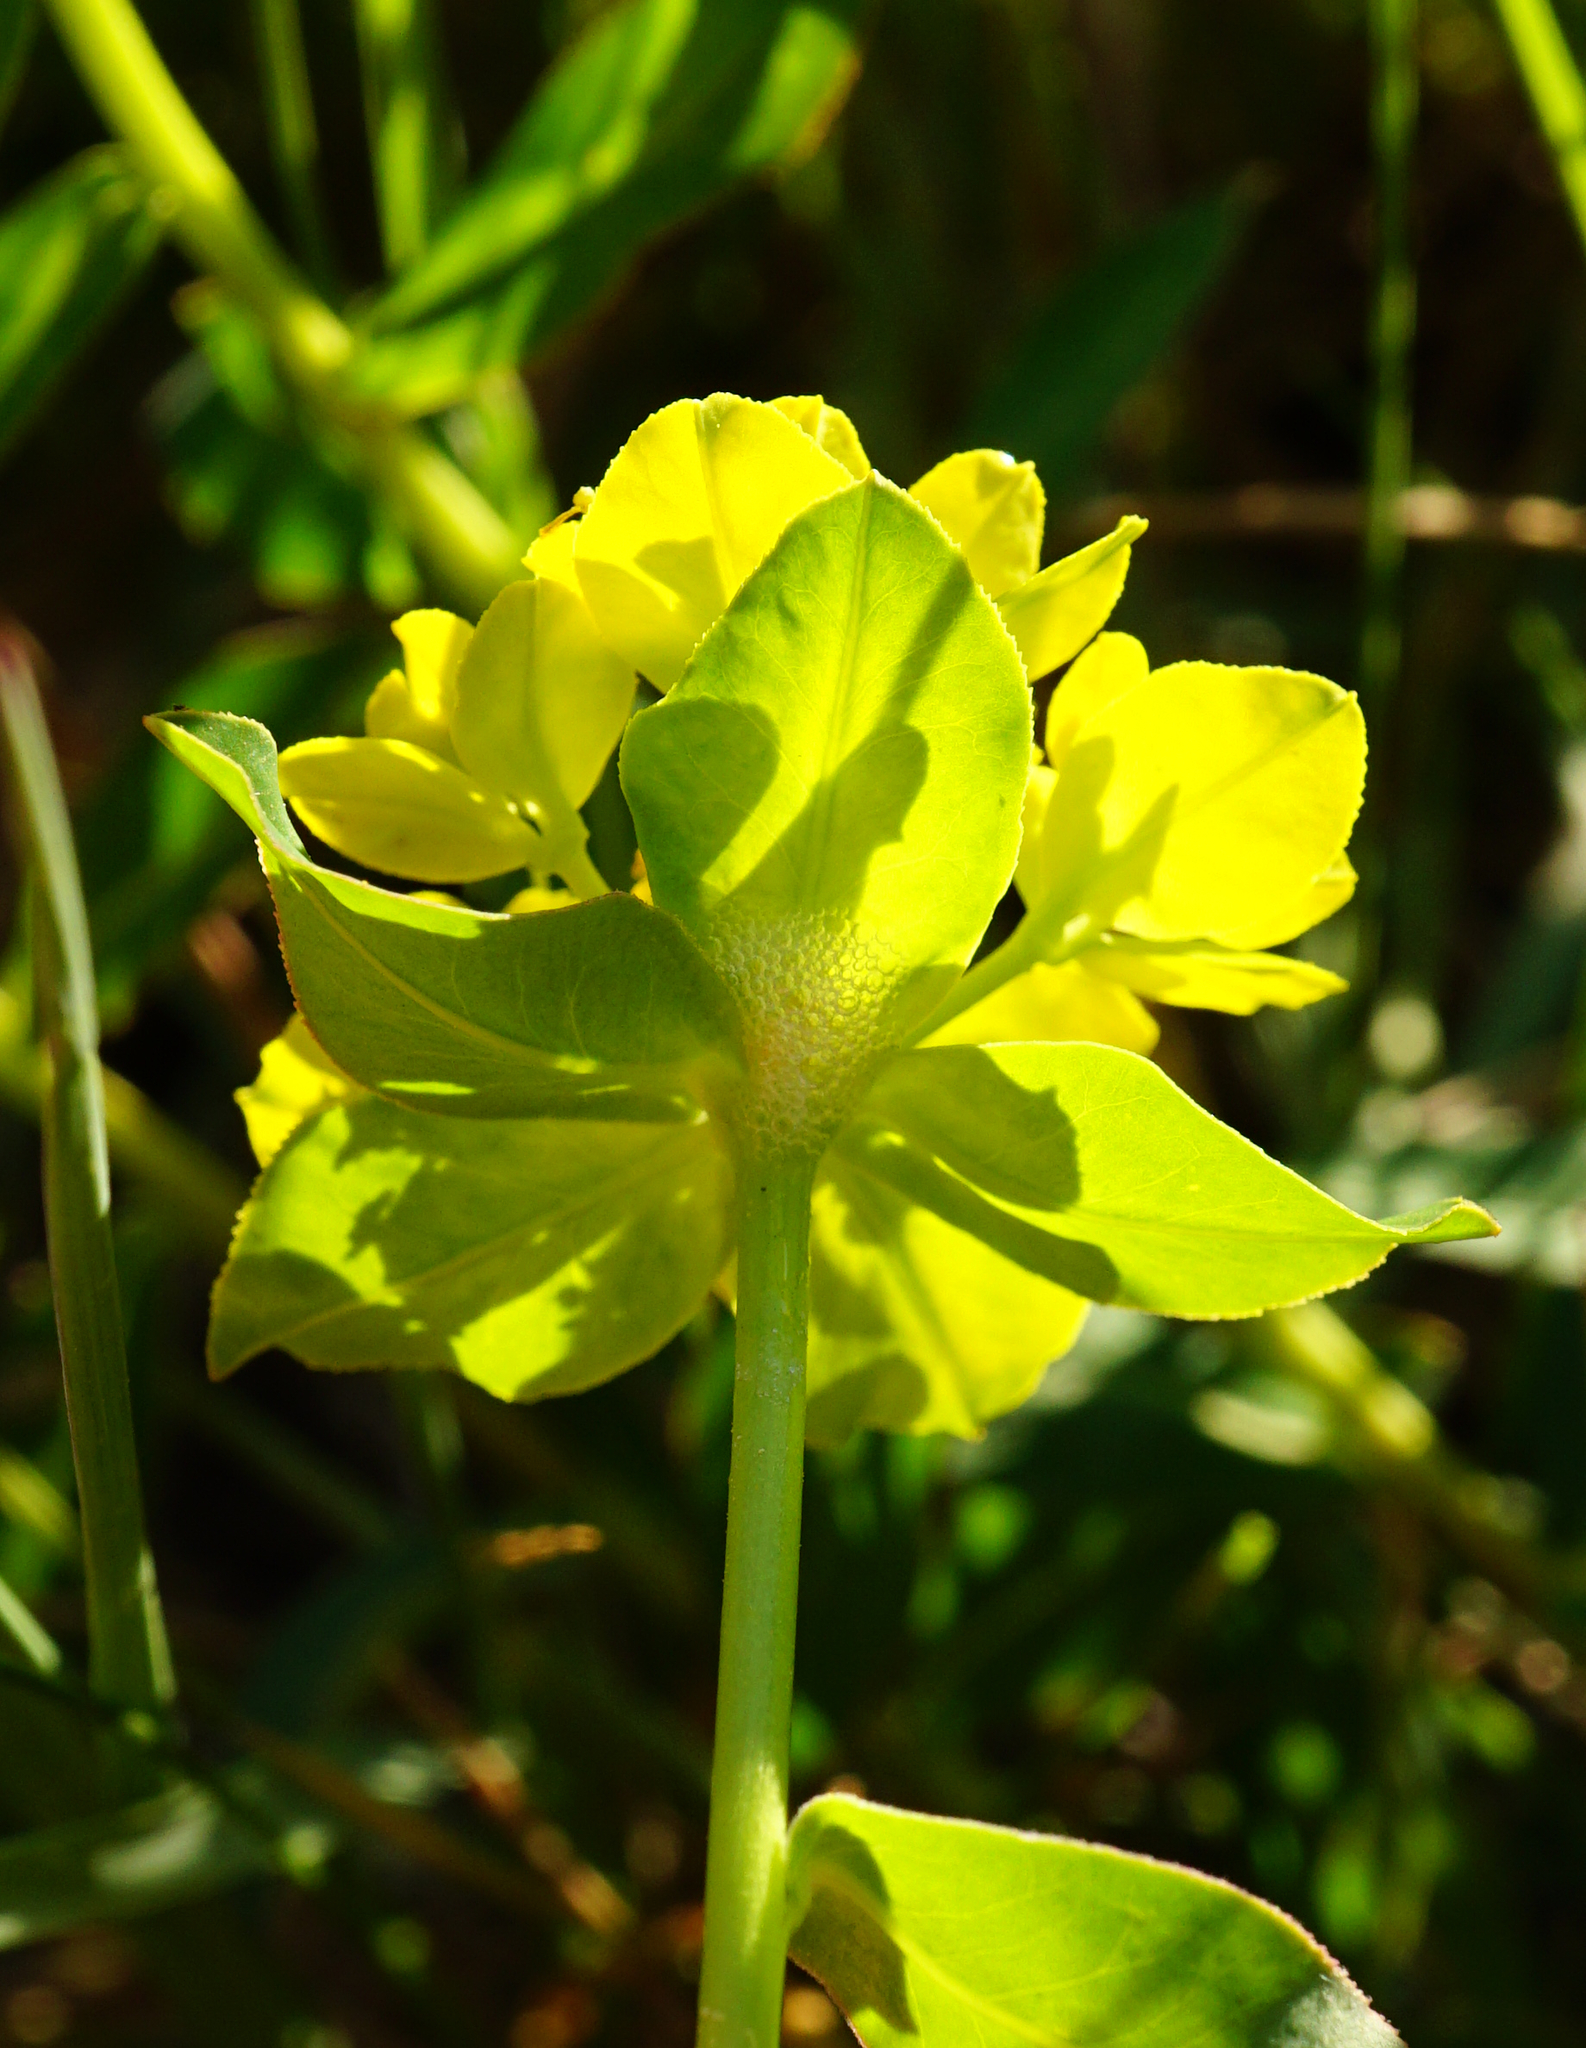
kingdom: Plantae
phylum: Tracheophyta
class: Magnoliopsida
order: Malpighiales
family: Euphorbiaceae
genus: Euphorbia
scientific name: Euphorbia verrucosa
